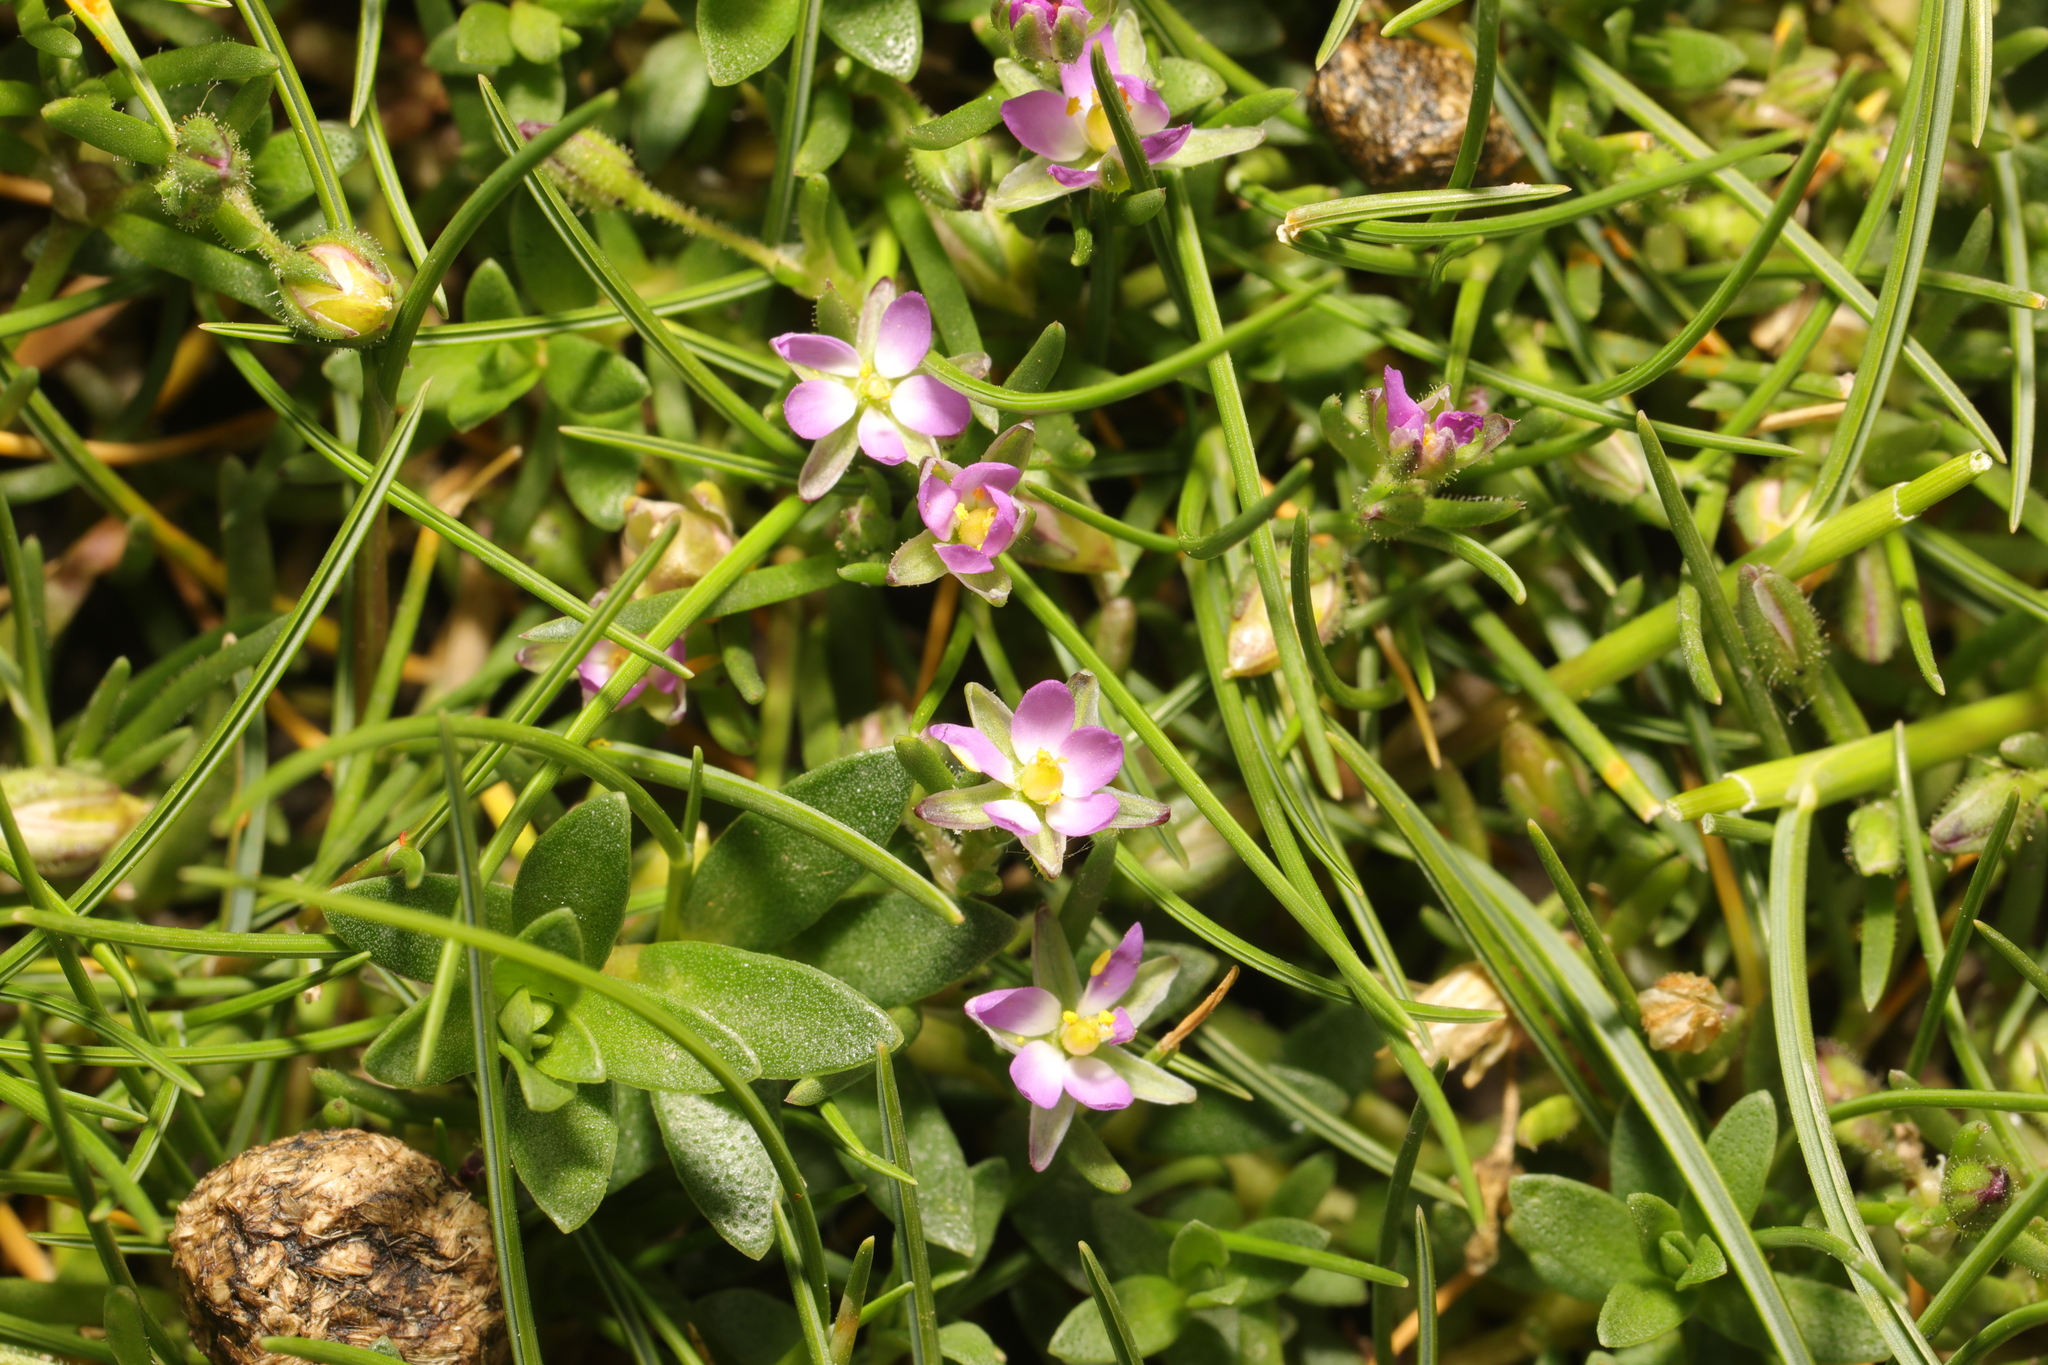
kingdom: Plantae
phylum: Tracheophyta
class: Magnoliopsida
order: Caryophyllales
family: Caryophyllaceae
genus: Spergularia
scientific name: Spergularia marina
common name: Lesser sea-spurrey
